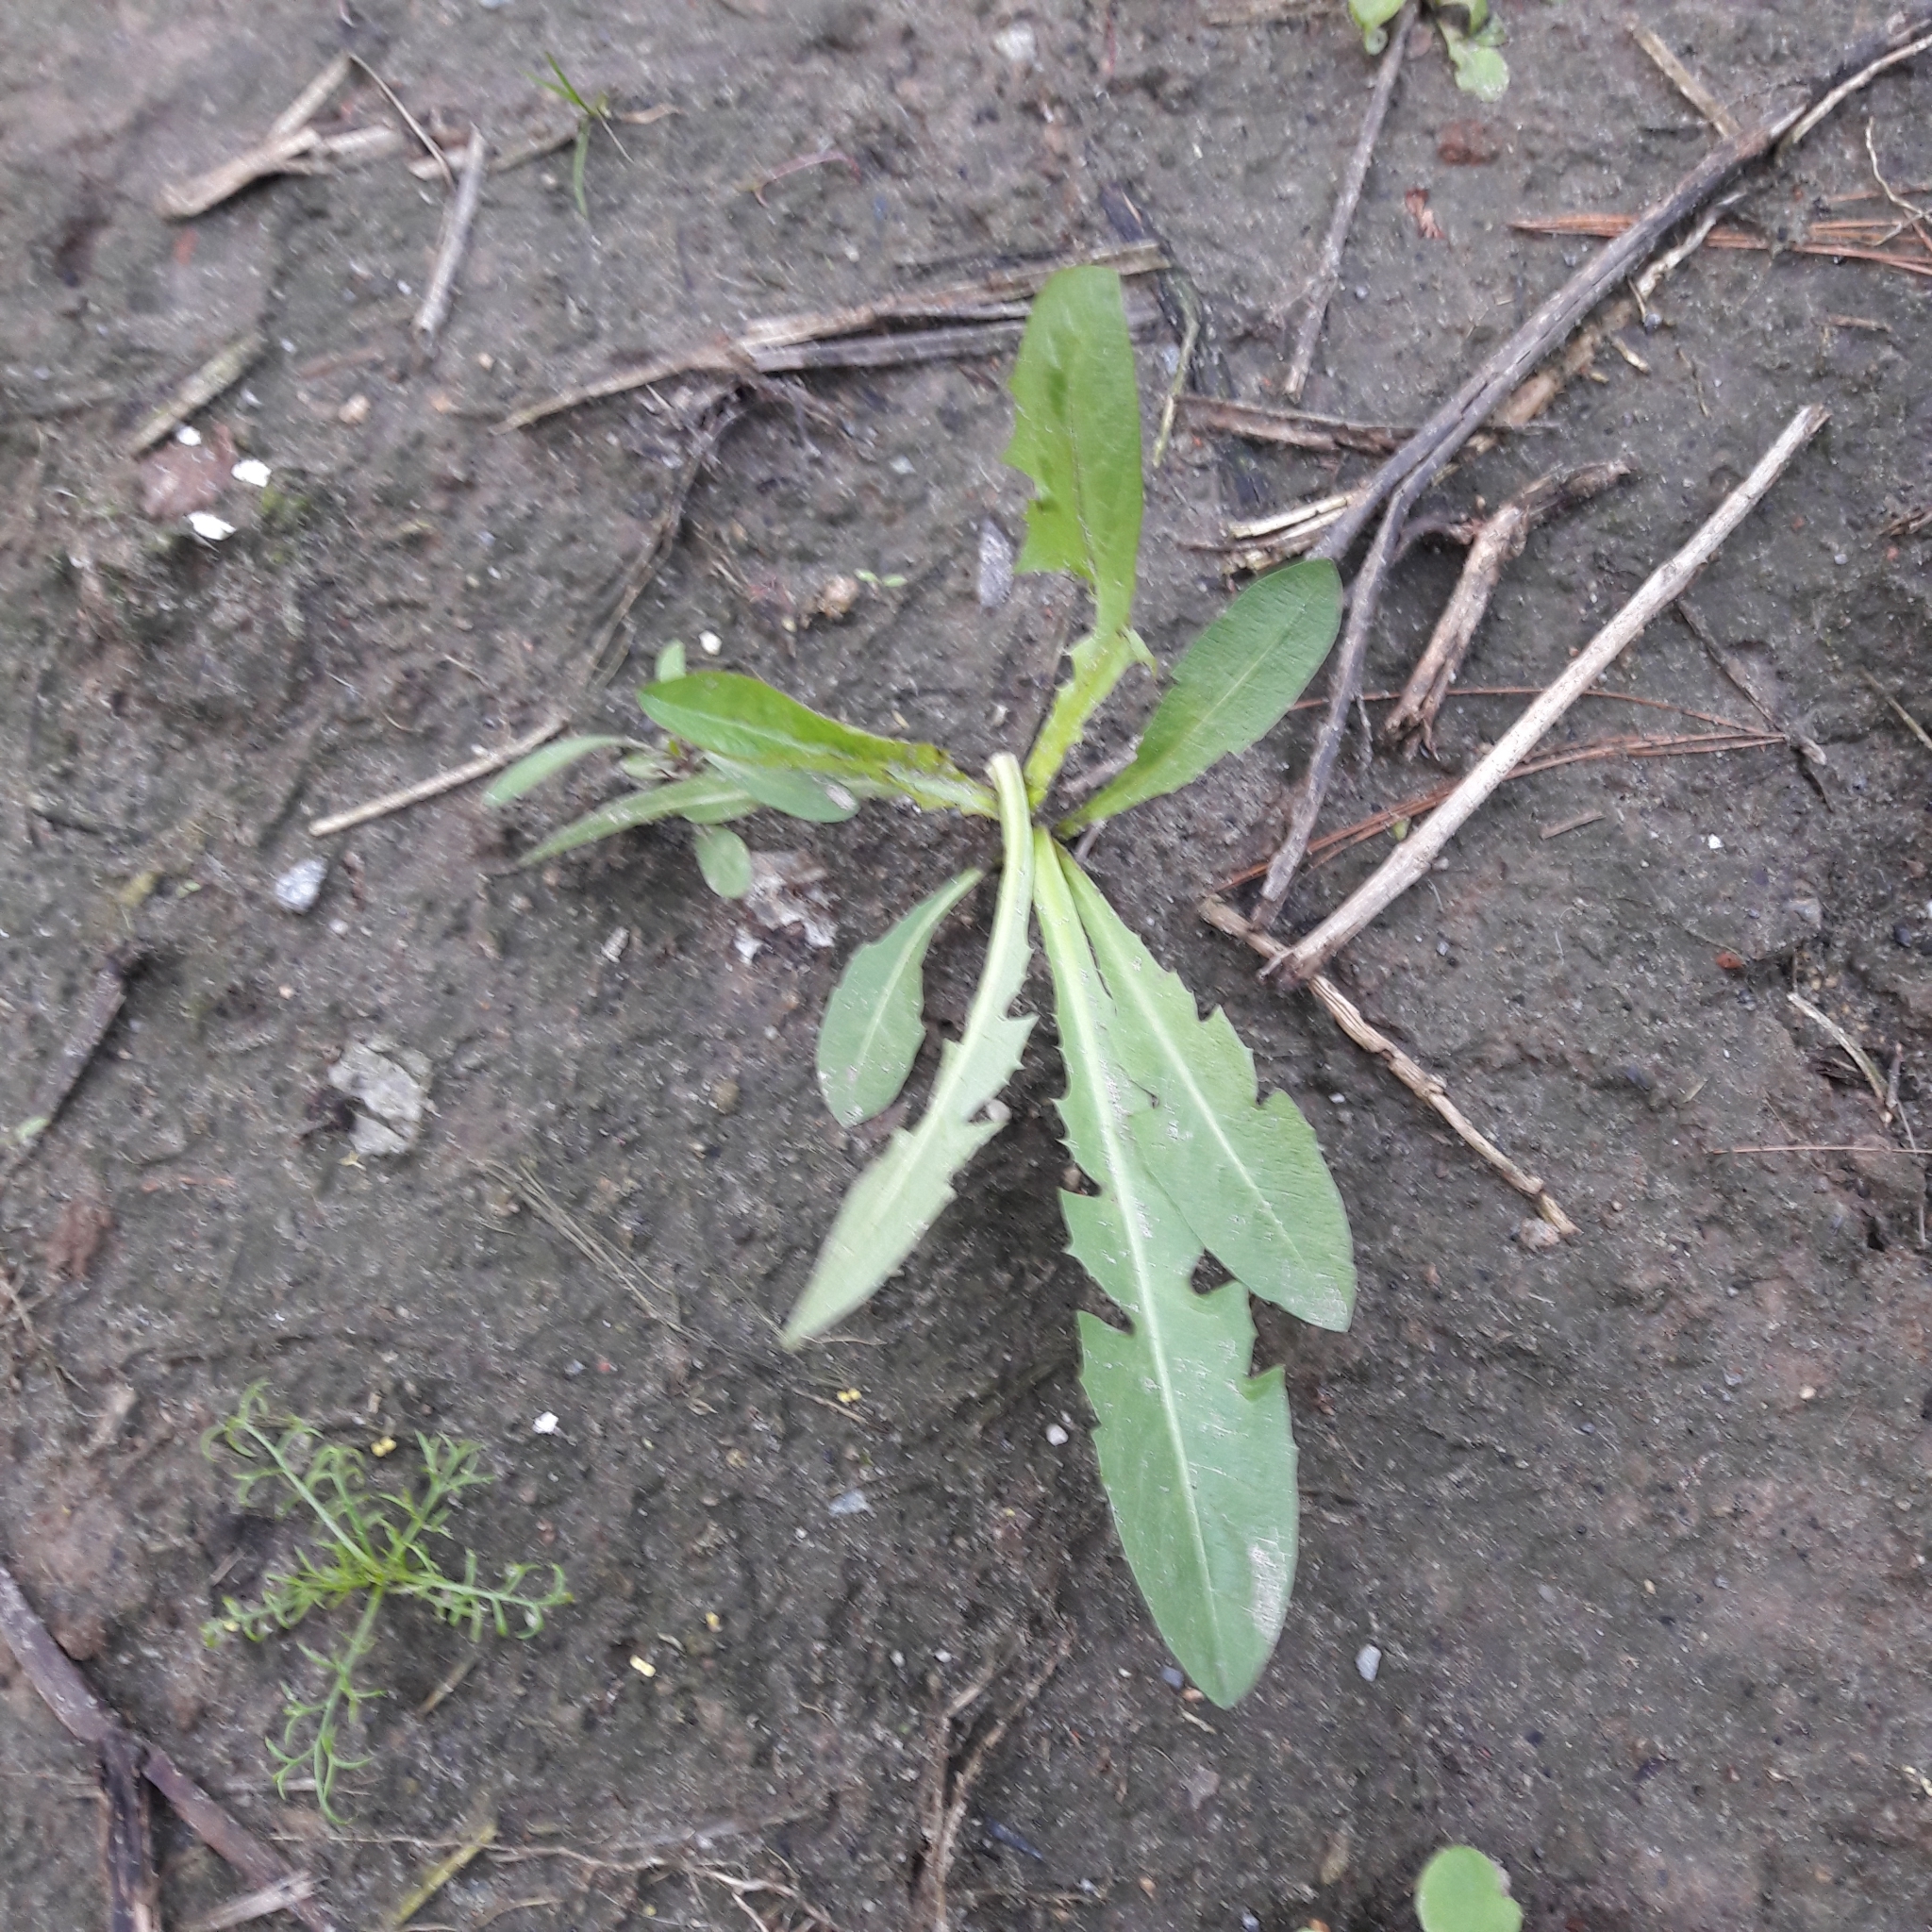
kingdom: Plantae
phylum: Tracheophyta
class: Magnoliopsida
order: Asterales
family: Asteraceae
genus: Taraxacum
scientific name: Taraxacum officinale
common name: Common dandelion
